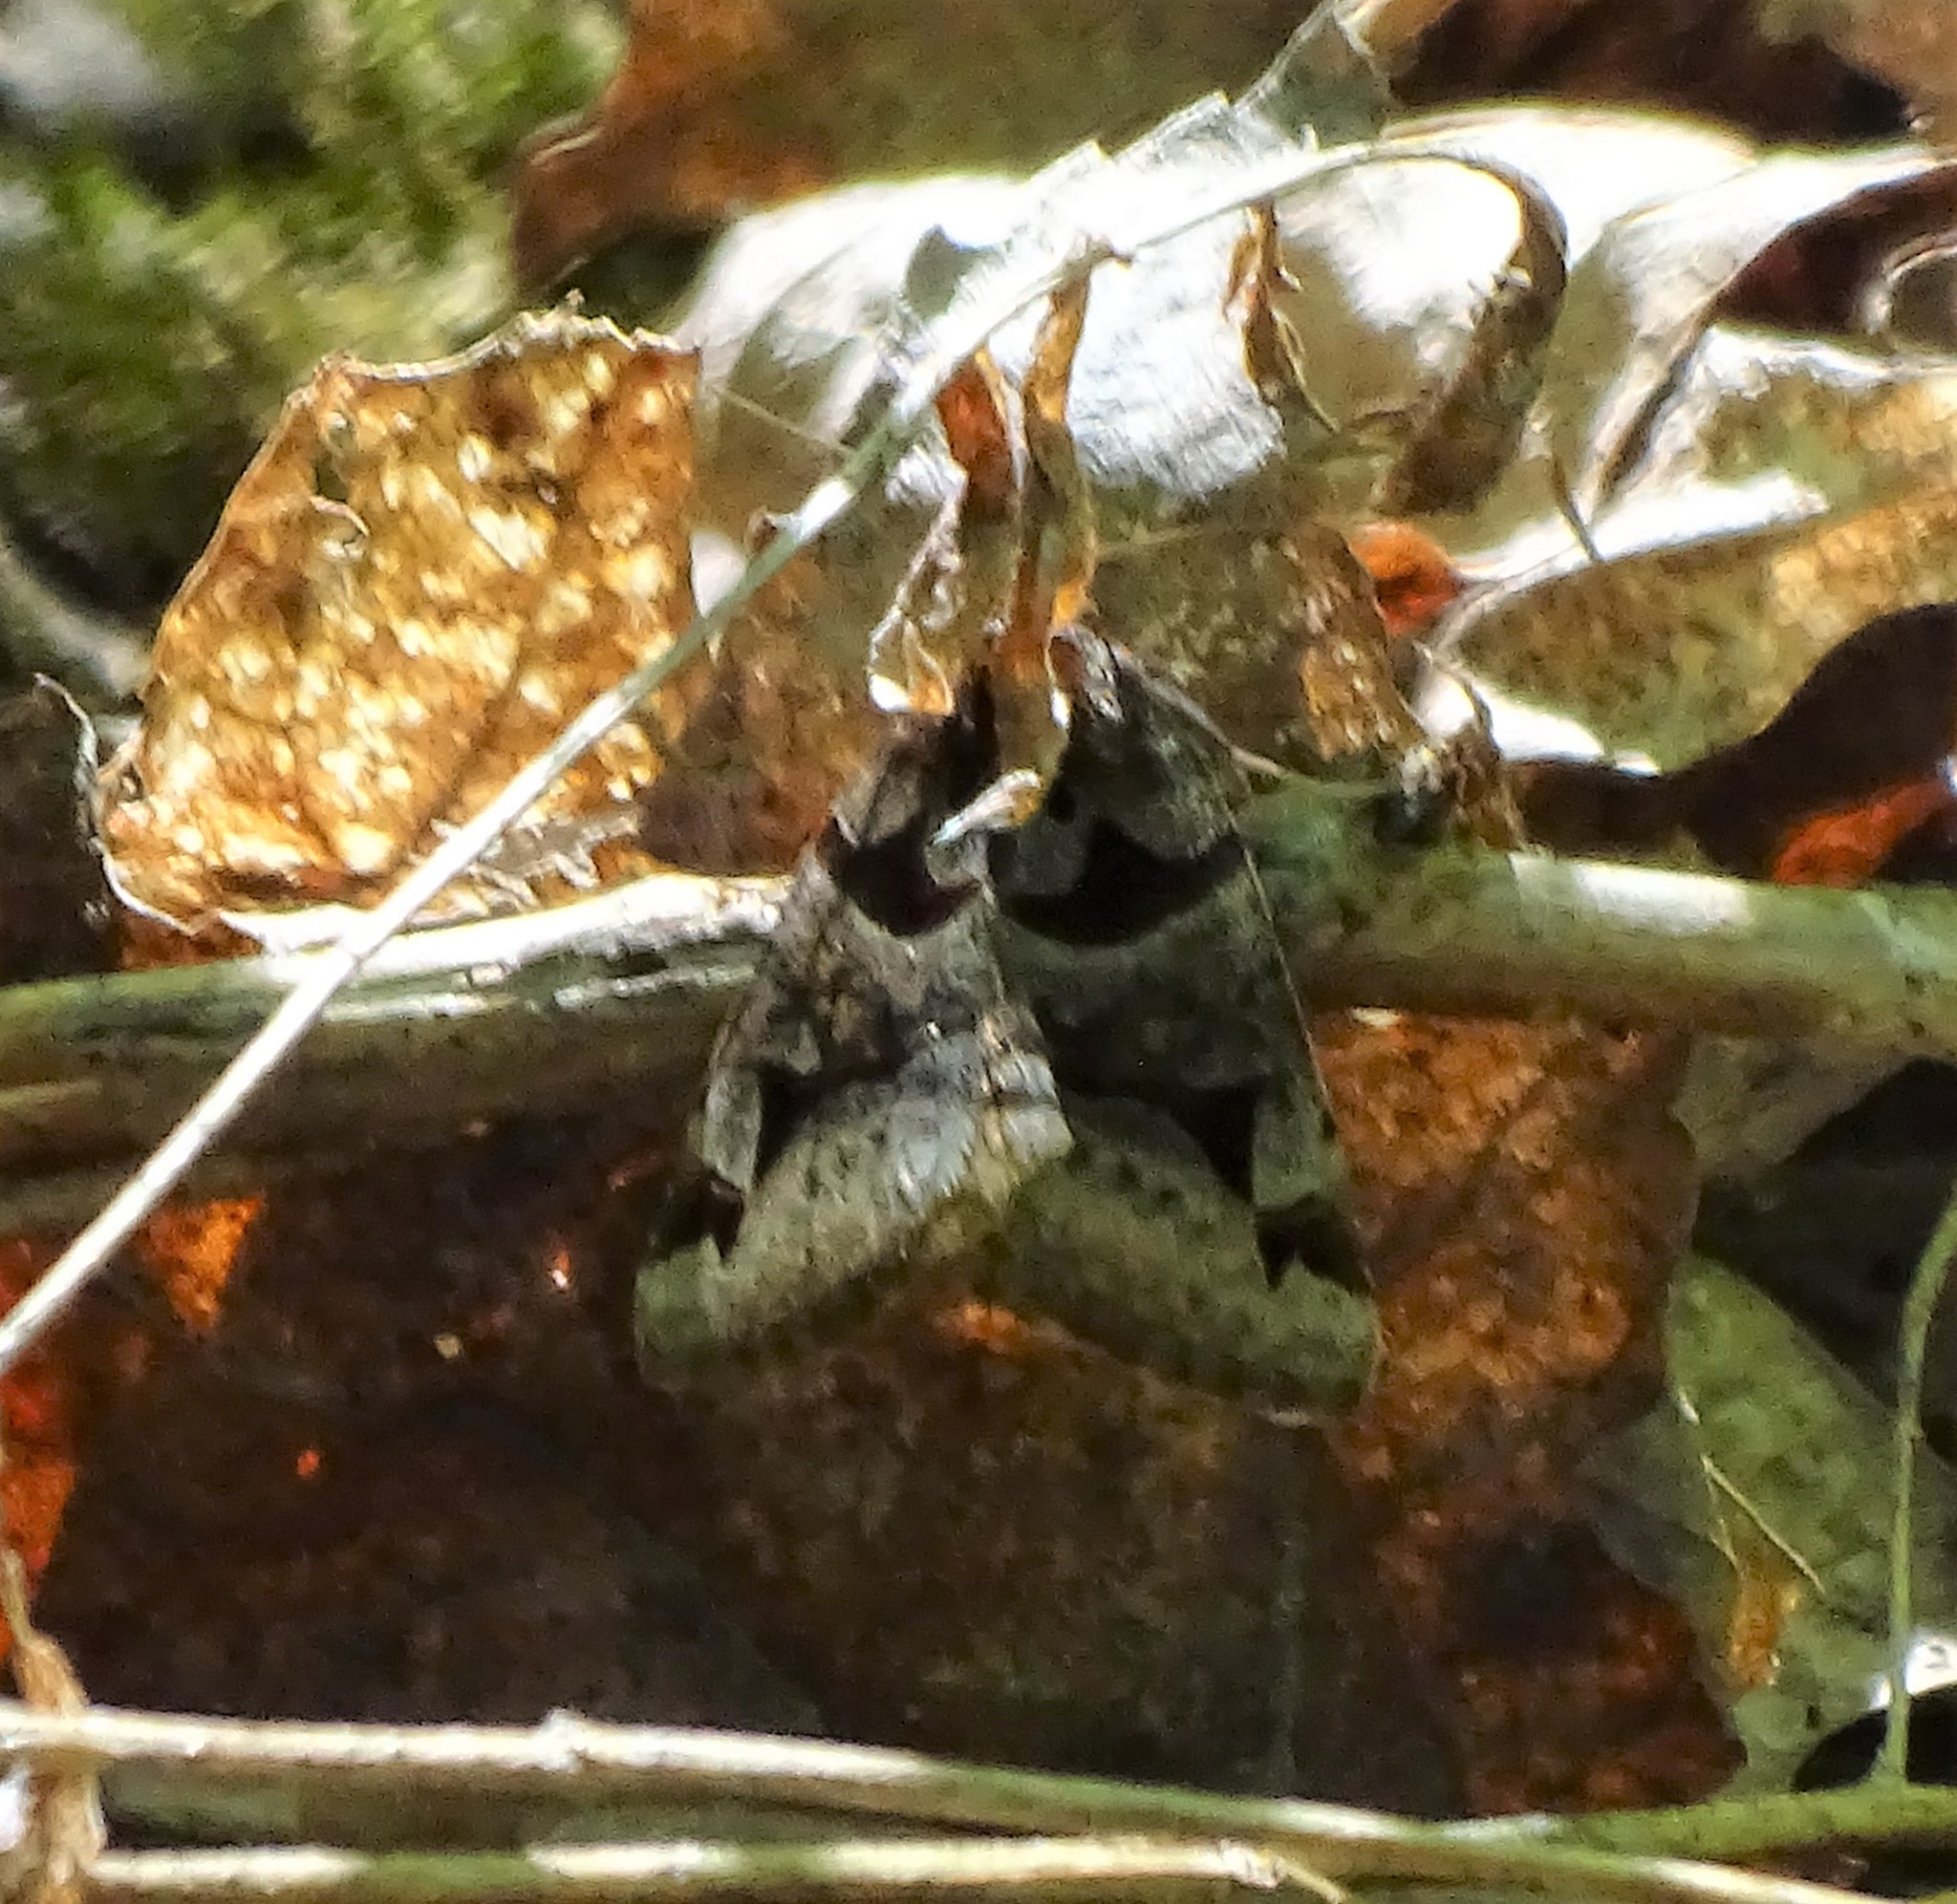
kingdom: Animalia
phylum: Arthropoda
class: Insecta
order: Lepidoptera
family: Erebidae
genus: Euclidia
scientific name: Euclidia cuspidea
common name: Toothed somberwing
